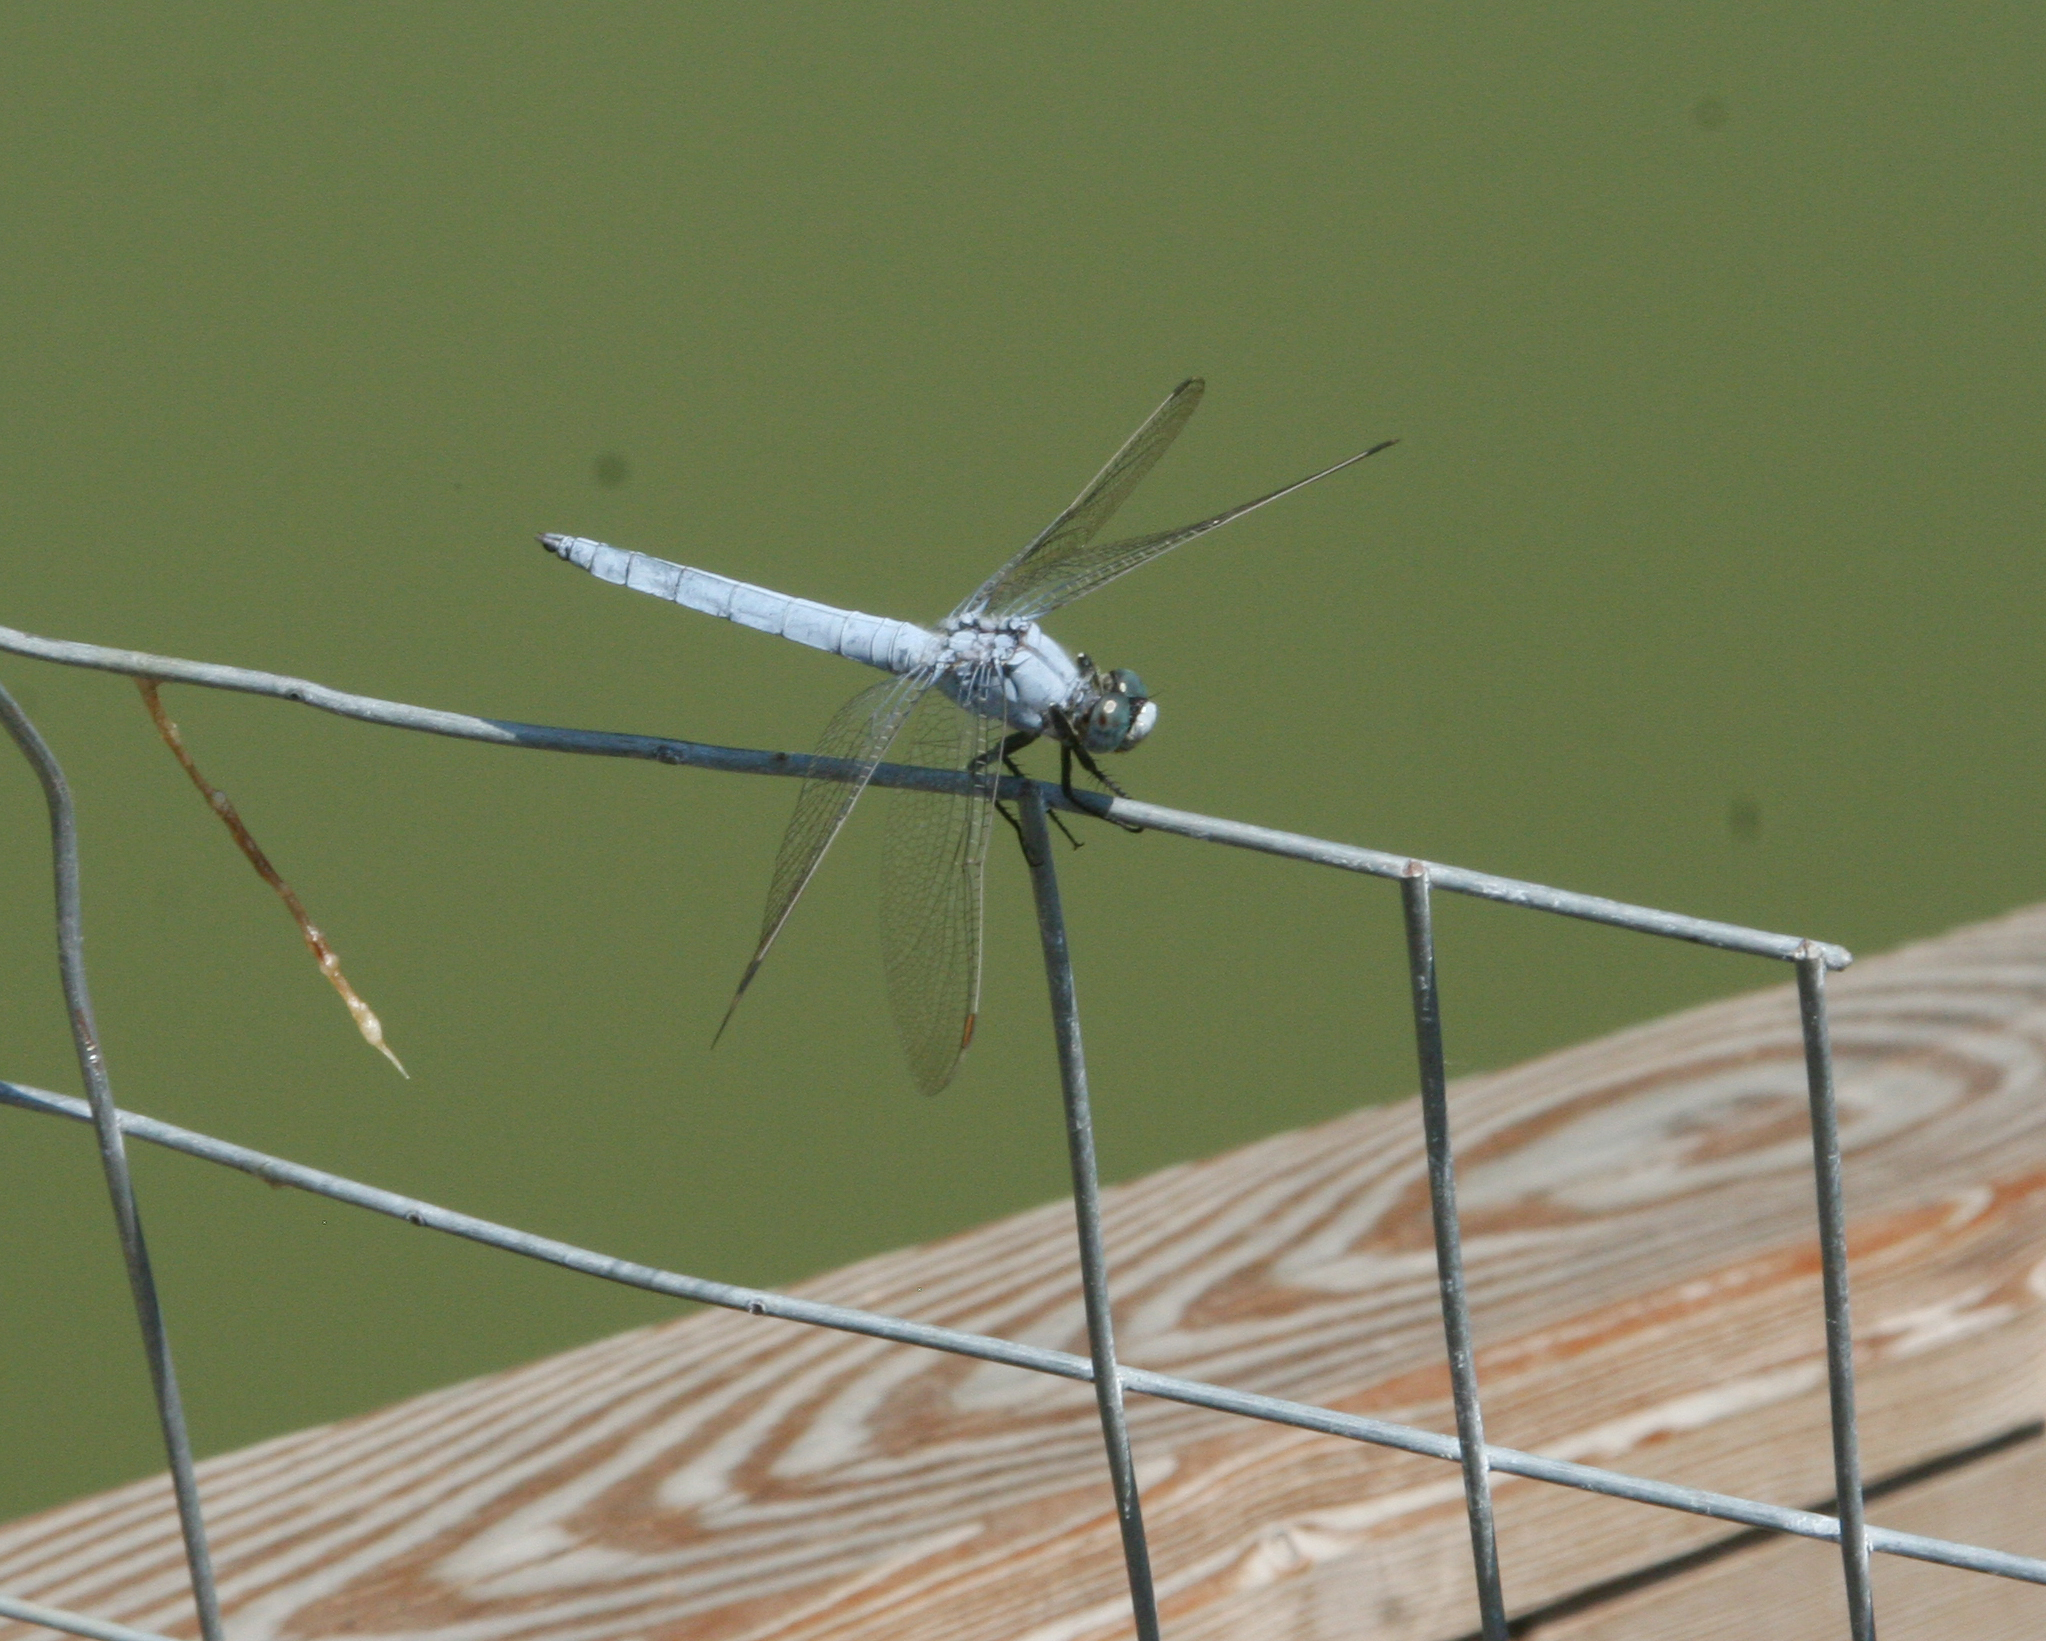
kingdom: Animalia
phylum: Arthropoda
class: Insecta
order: Odonata
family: Libellulidae
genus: Orthetrum
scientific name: Orthetrum brunneum
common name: Southern skimmer
